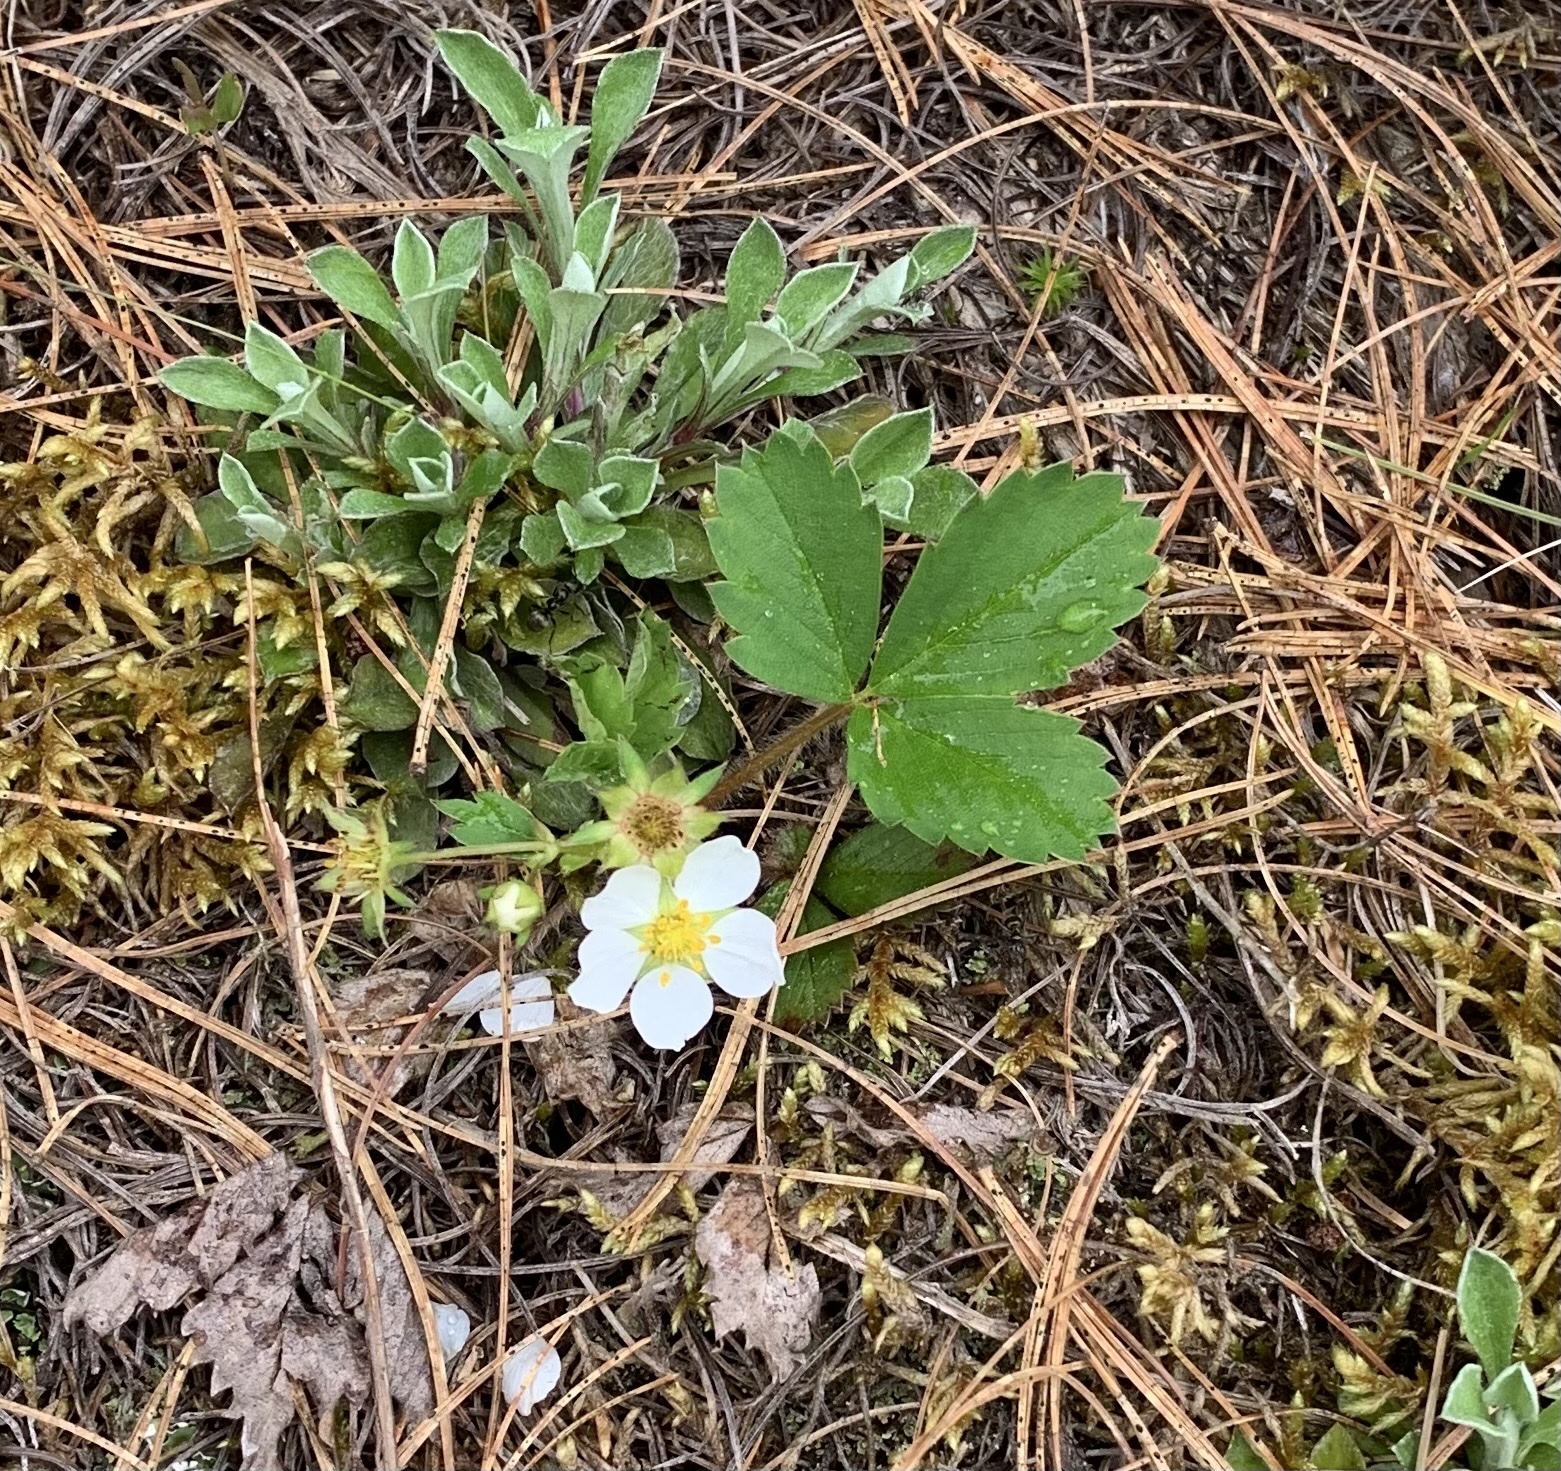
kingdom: Plantae
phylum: Tracheophyta
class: Magnoliopsida
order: Rosales
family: Rosaceae
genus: Fragaria
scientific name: Fragaria virginiana
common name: Thickleaved wild strawberry
